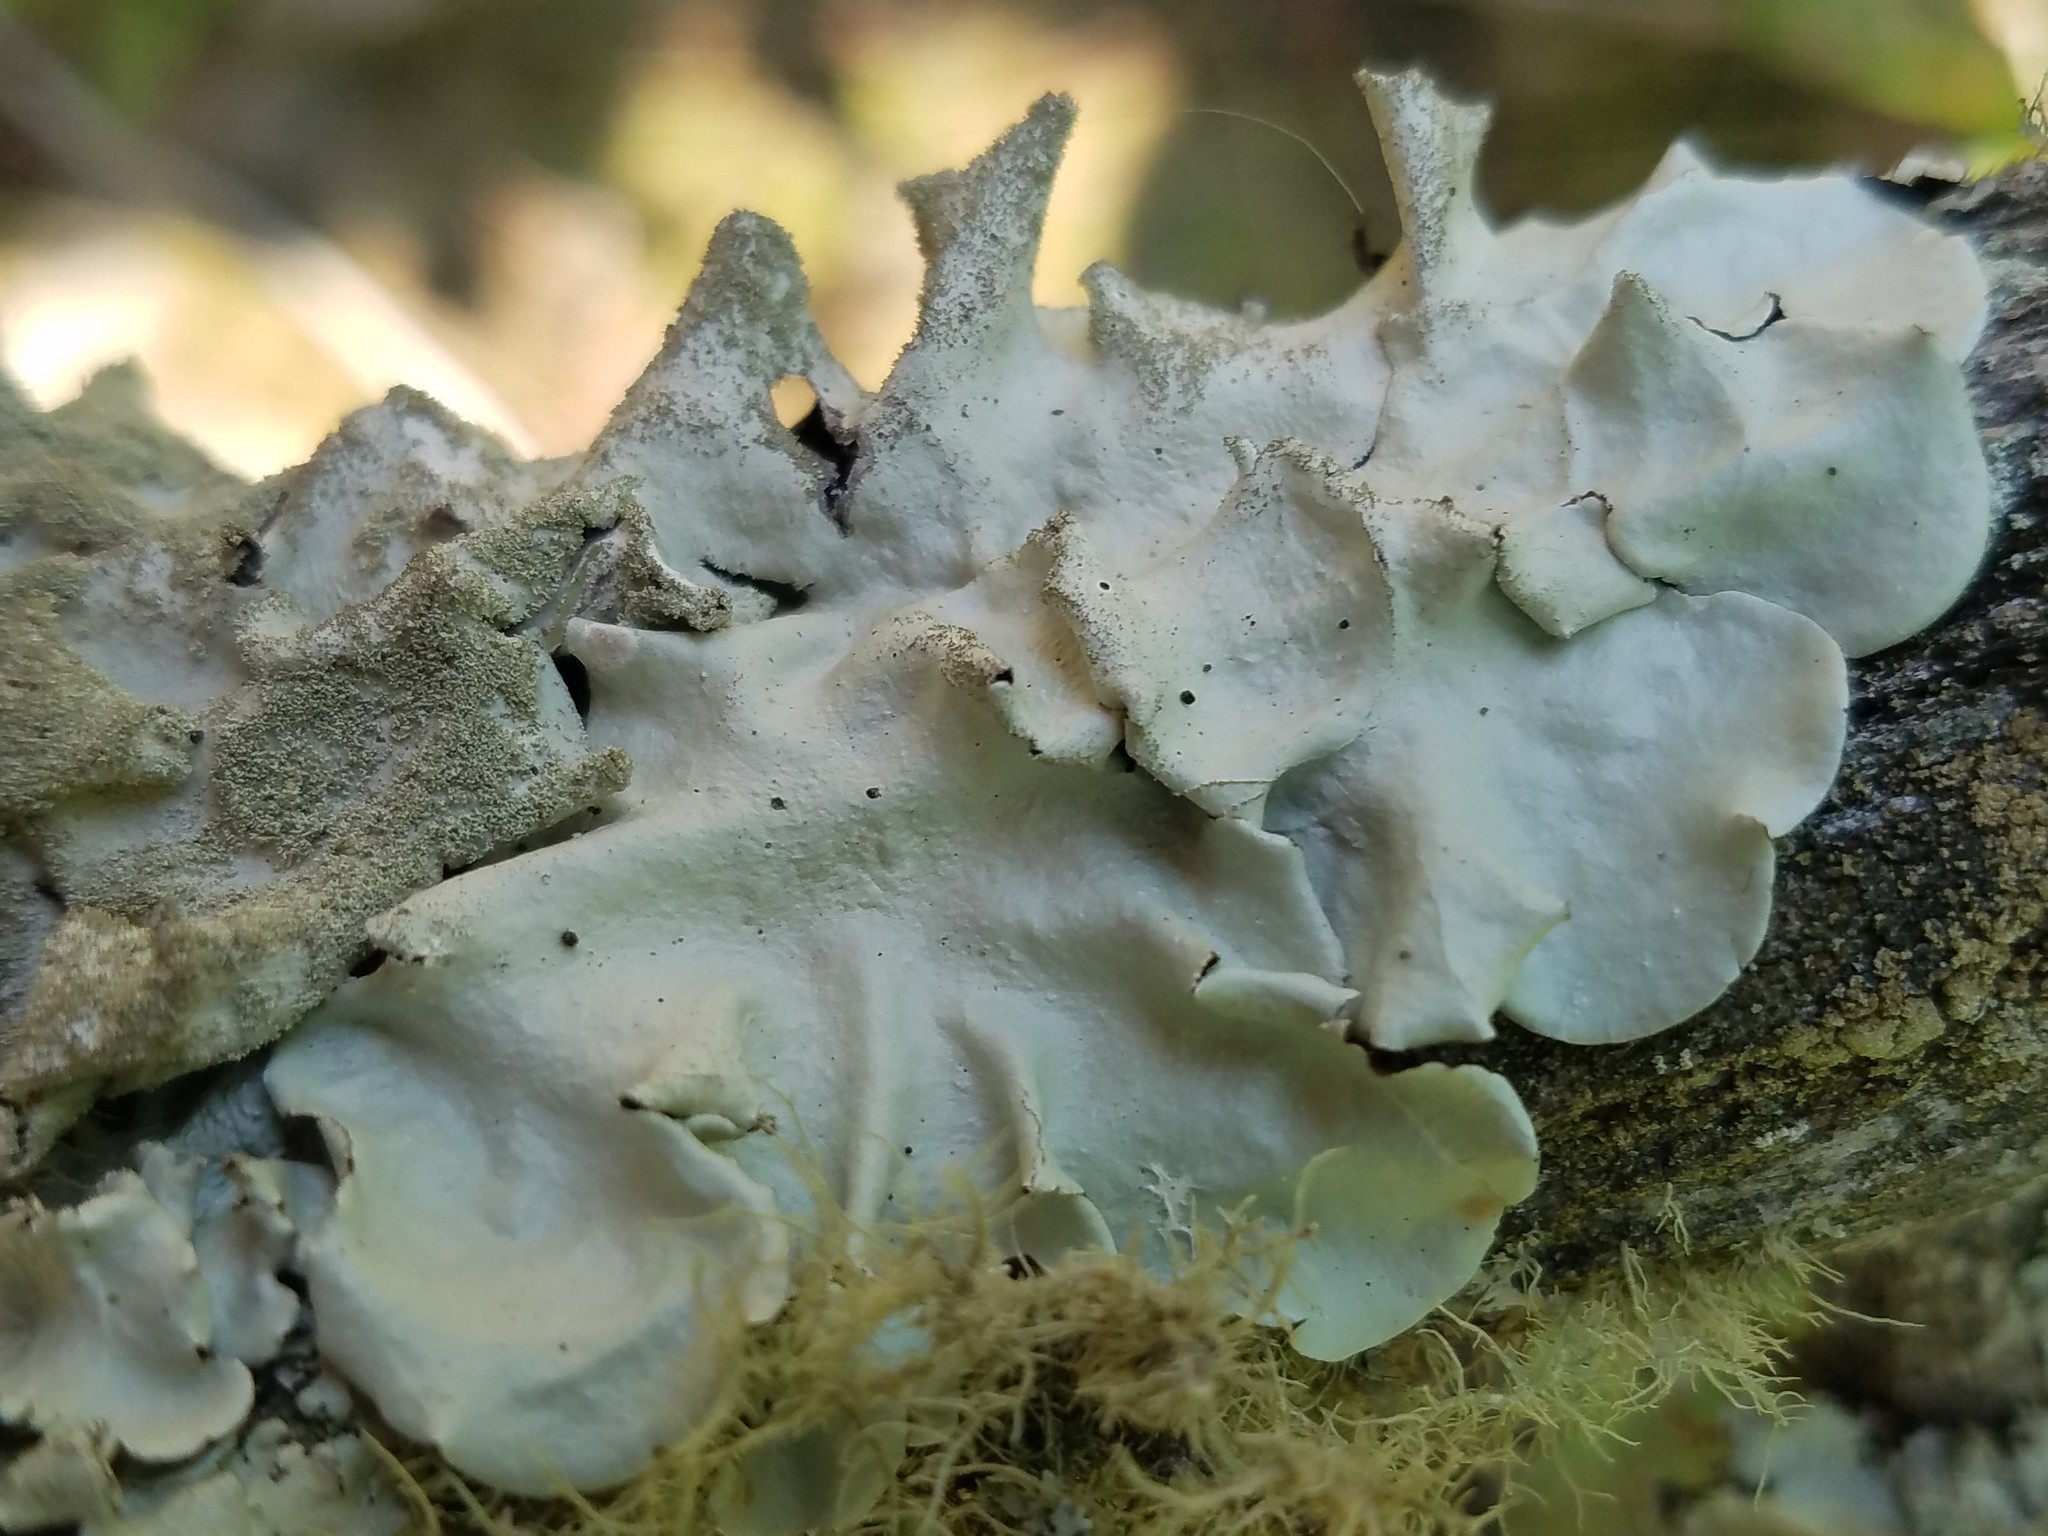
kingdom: Fungi
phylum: Ascomycota
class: Lecanoromycetes
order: Lecanorales
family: Parmeliaceae
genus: Parmotrema
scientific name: Parmotrema tinctorum
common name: Old gray ruffles
